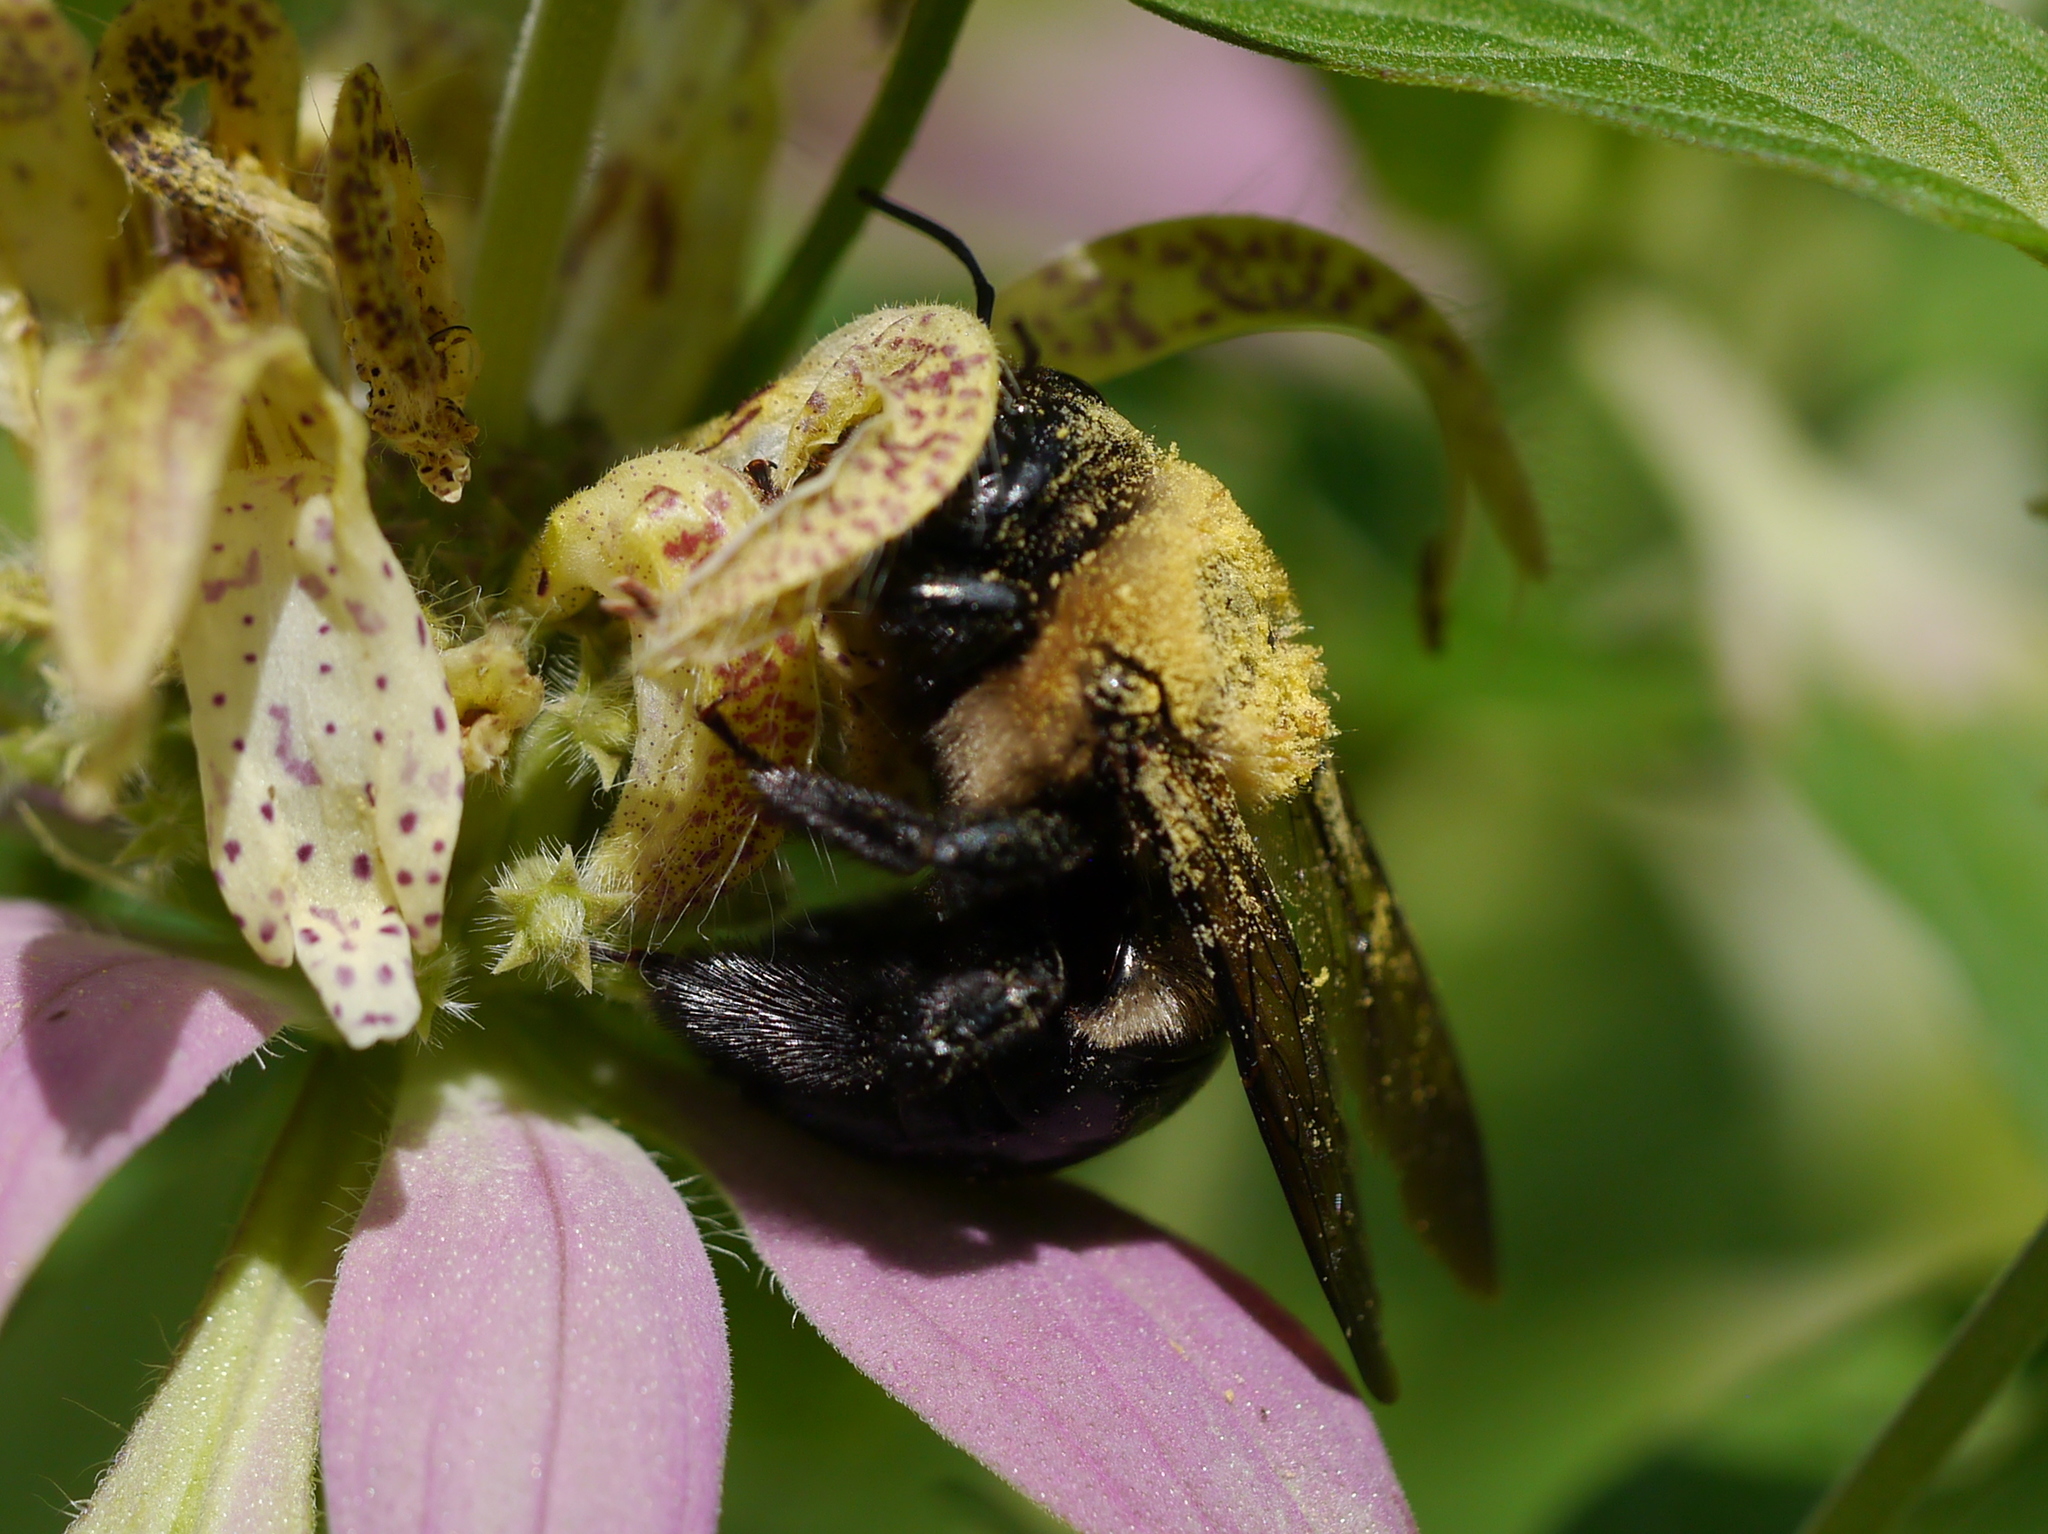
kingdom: Animalia
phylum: Arthropoda
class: Insecta
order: Hymenoptera
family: Apidae
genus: Xylocopa
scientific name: Xylocopa virginica
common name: Carpenter bee
